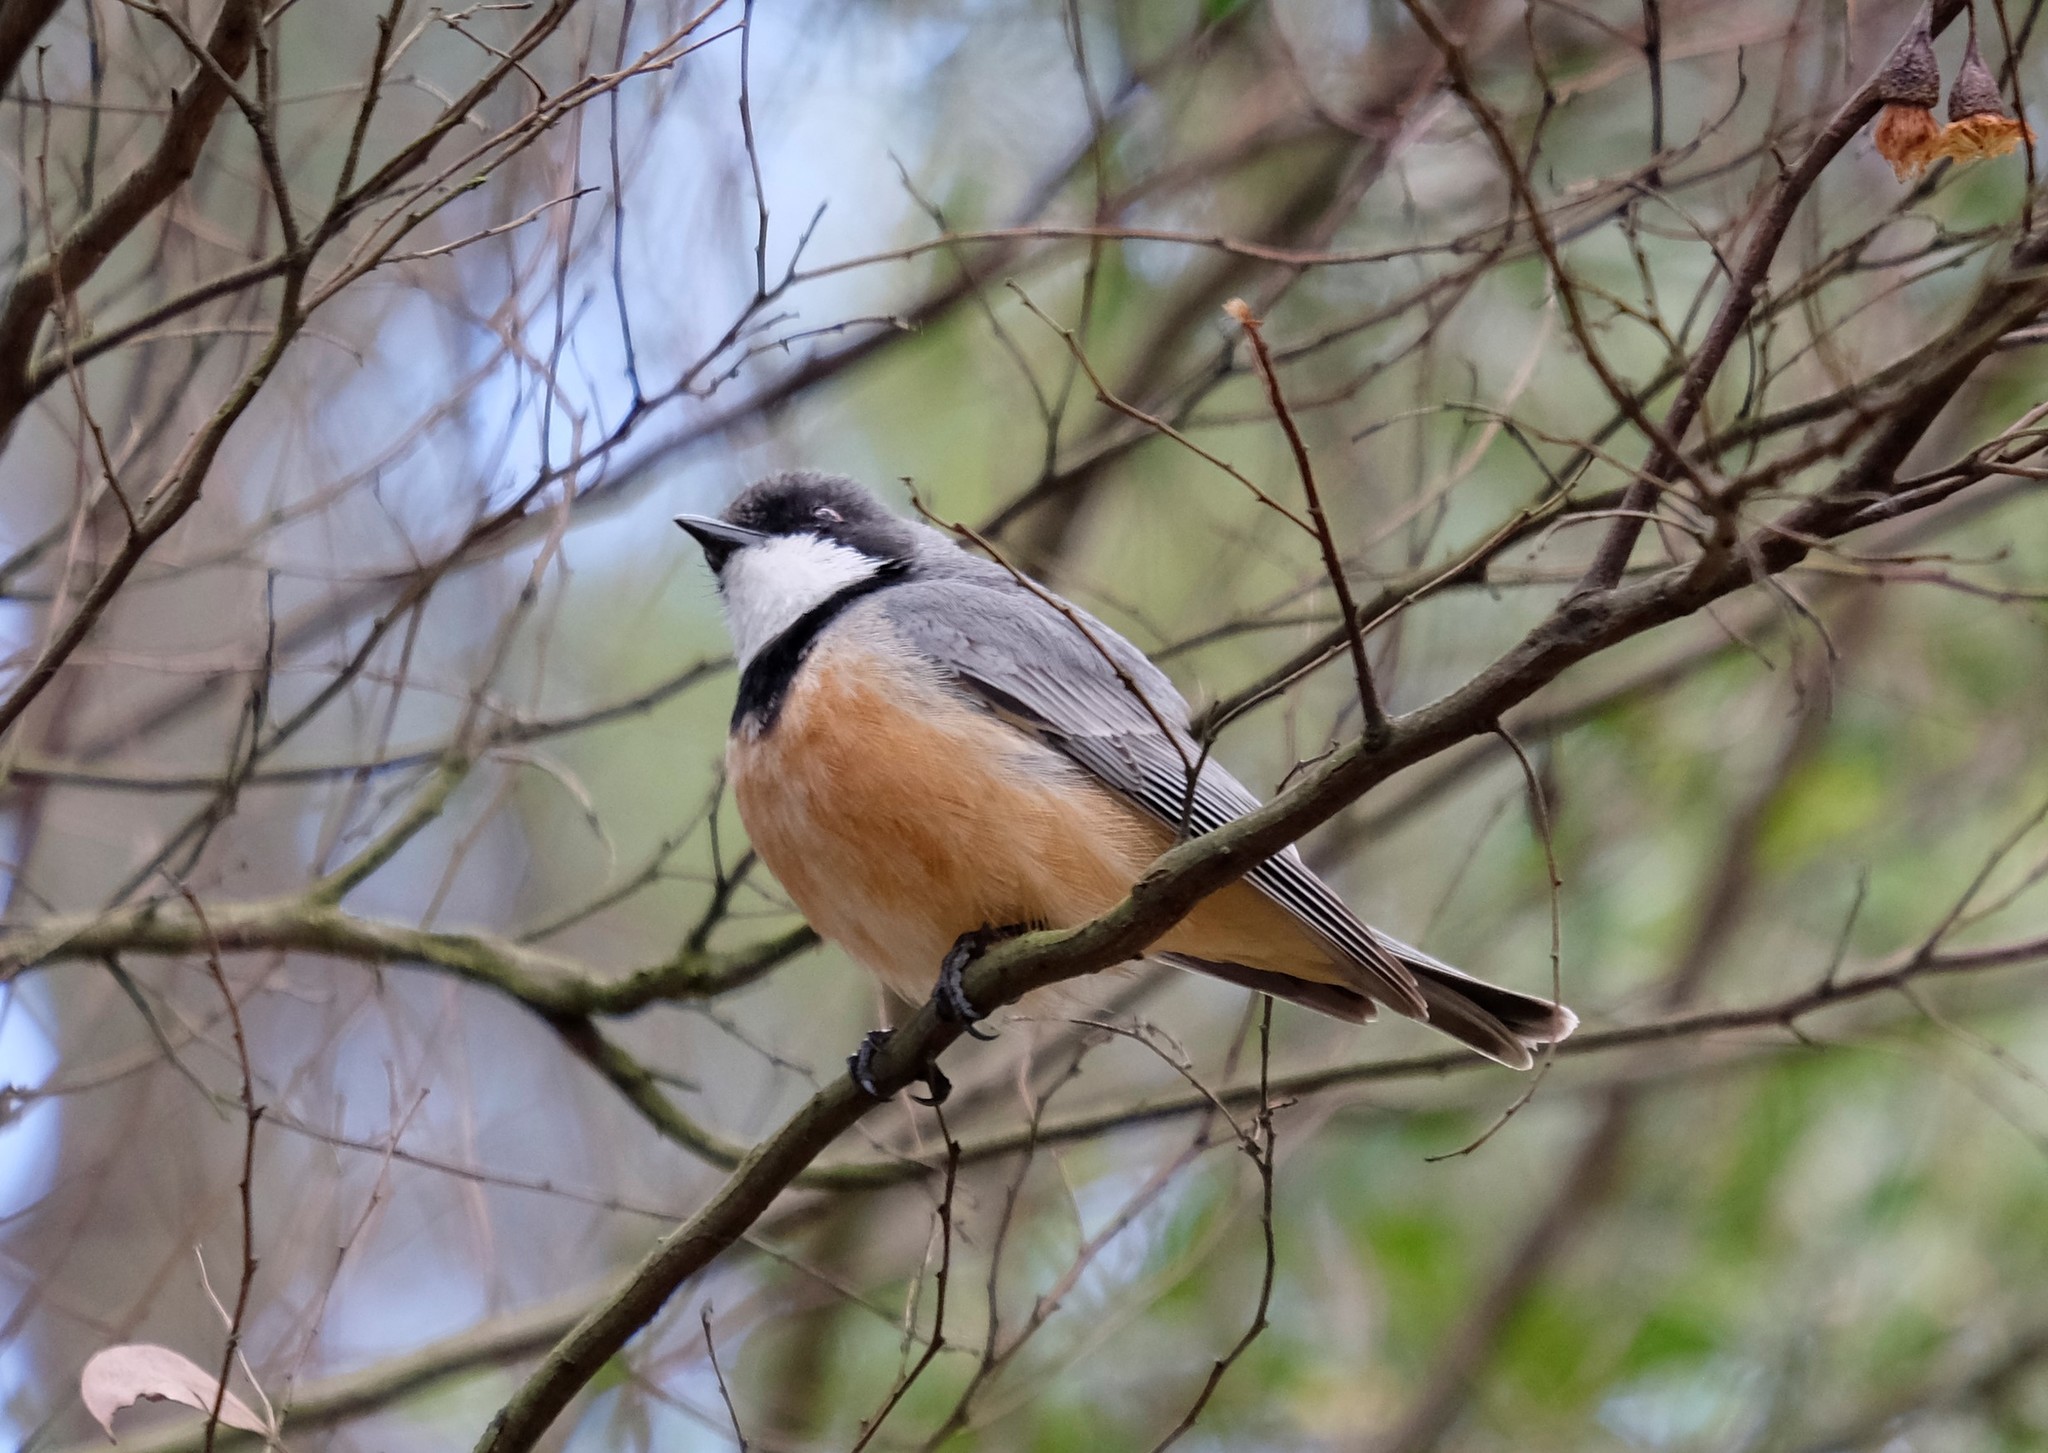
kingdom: Animalia
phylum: Chordata
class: Aves
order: Passeriformes
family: Pachycephalidae
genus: Pachycephala
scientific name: Pachycephala rufiventris
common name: Rufous whistler
